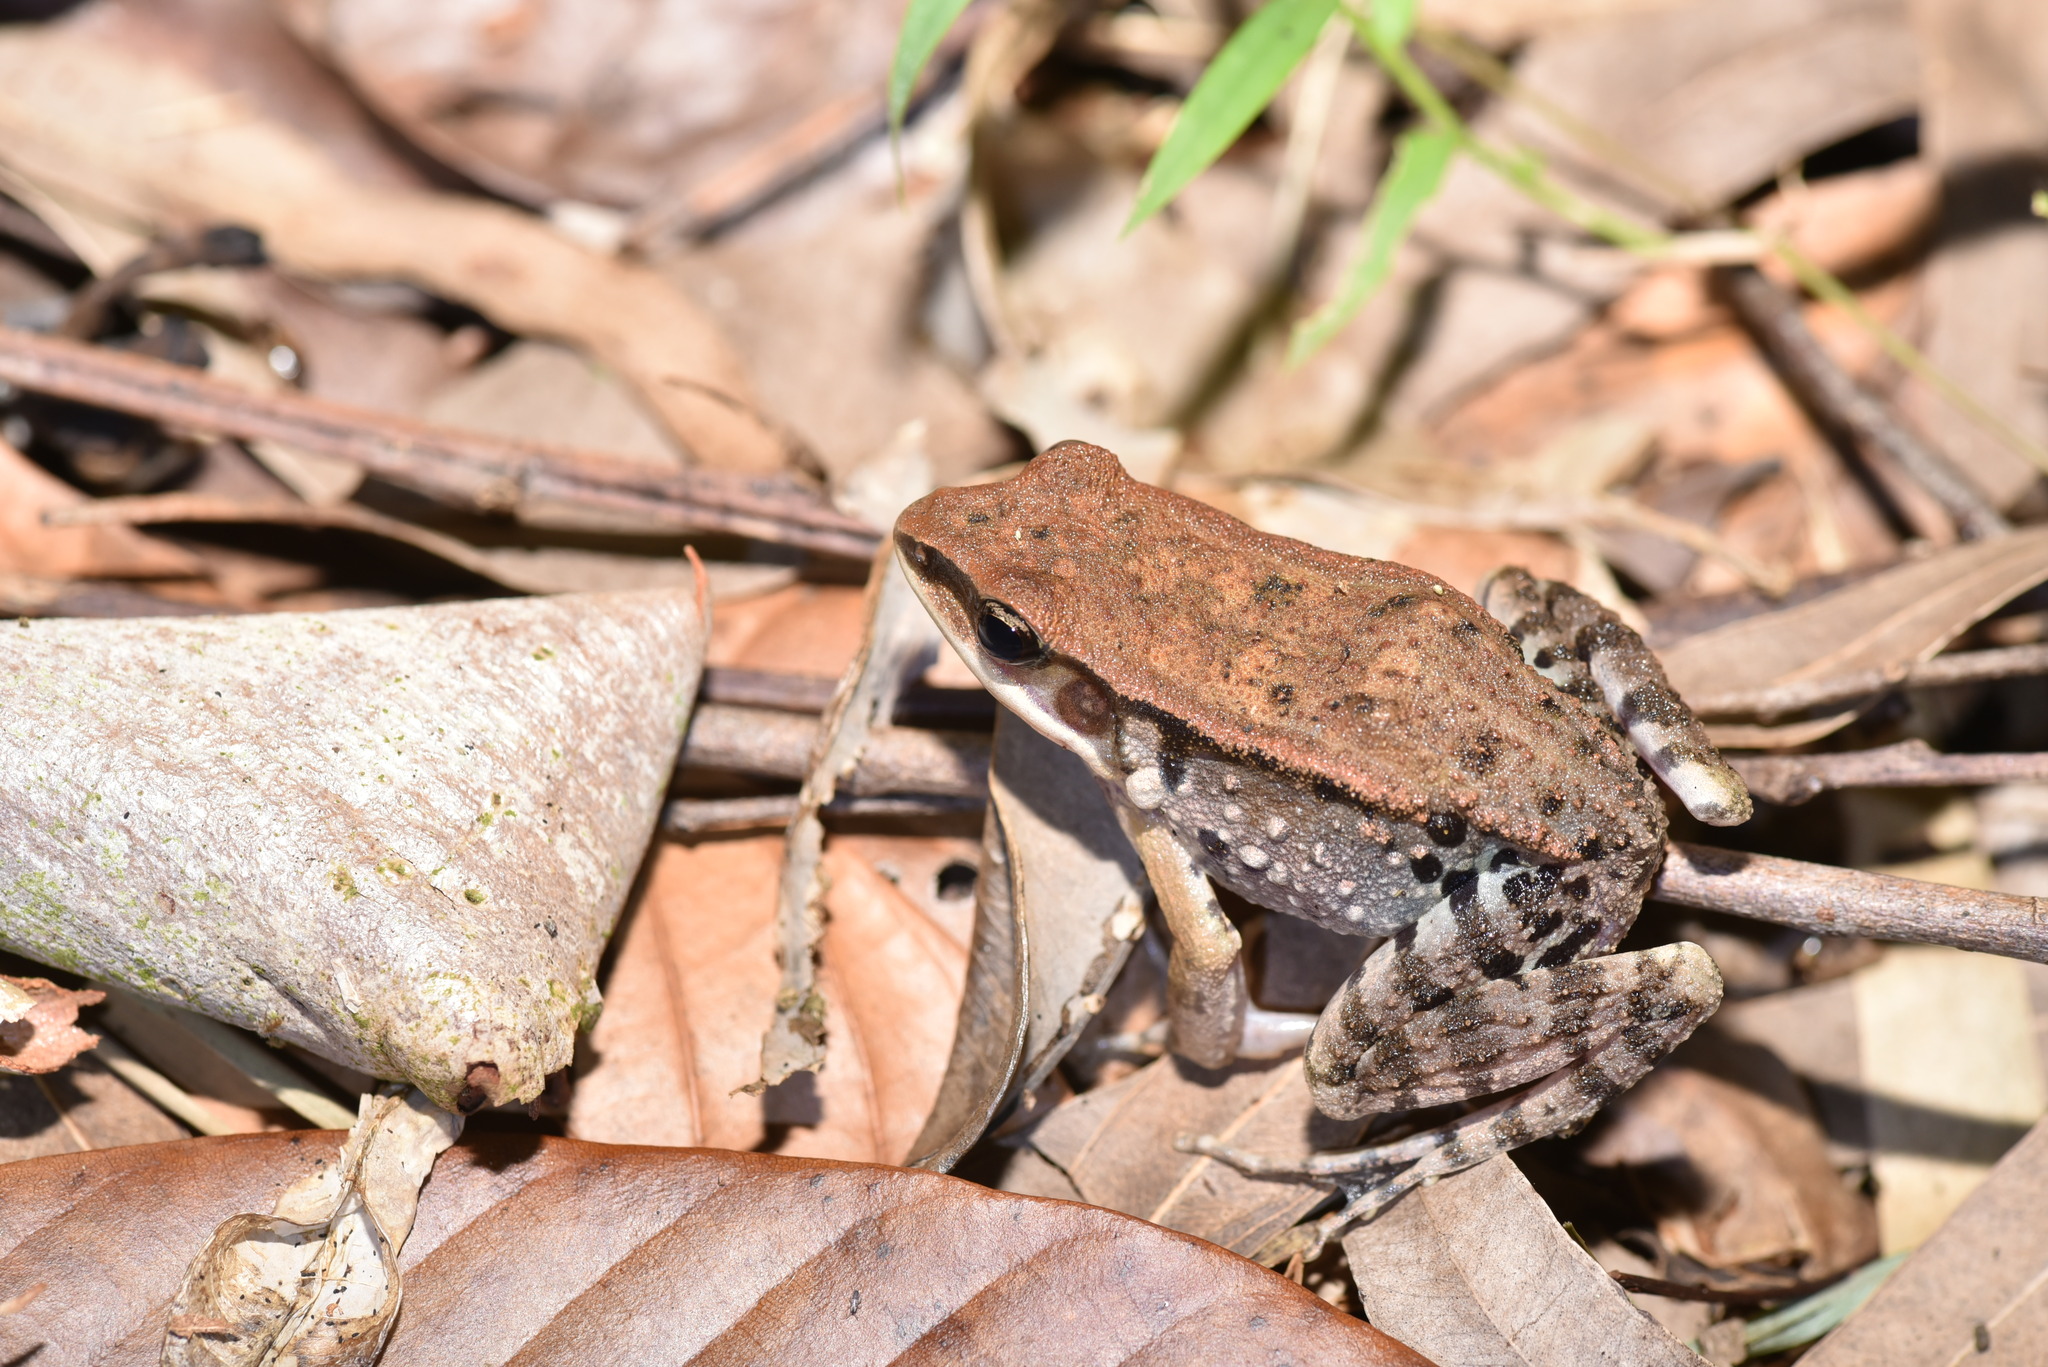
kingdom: Animalia
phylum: Chordata
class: Amphibia
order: Anura
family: Ranidae
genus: Hylarana
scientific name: Hylarana latouchii
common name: Broad-folded frog
